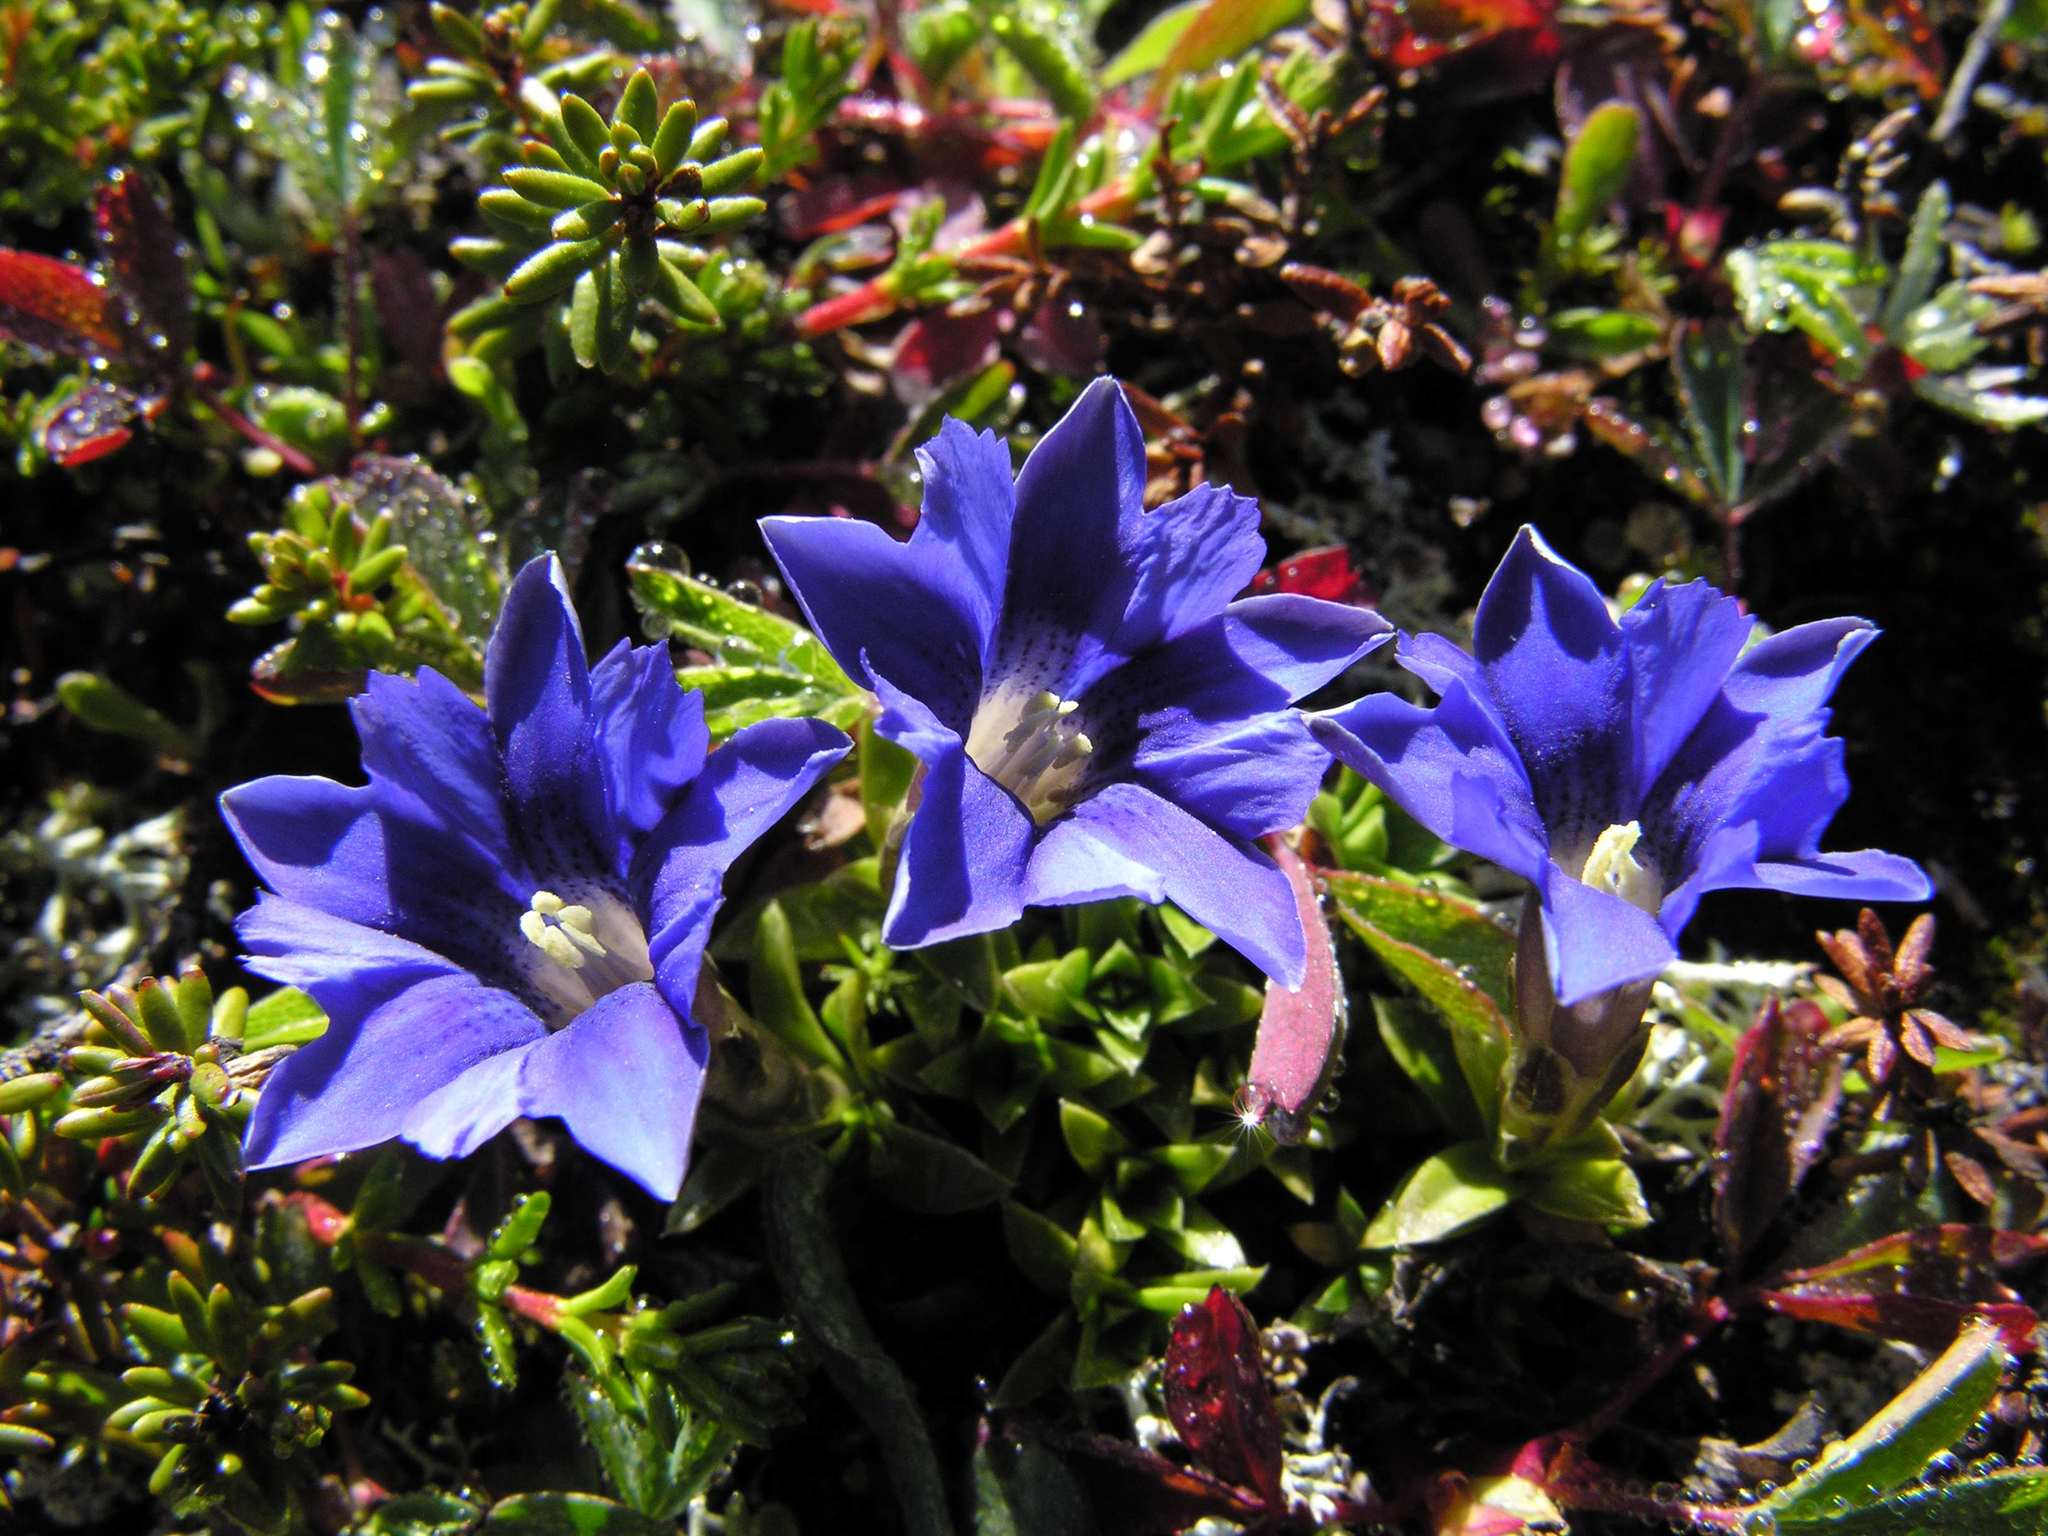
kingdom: Plantae
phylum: Tracheophyta
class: Magnoliopsida
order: Gentianales
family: Gentianaceae
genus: Gentiana
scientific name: Gentiana dshimilensis
